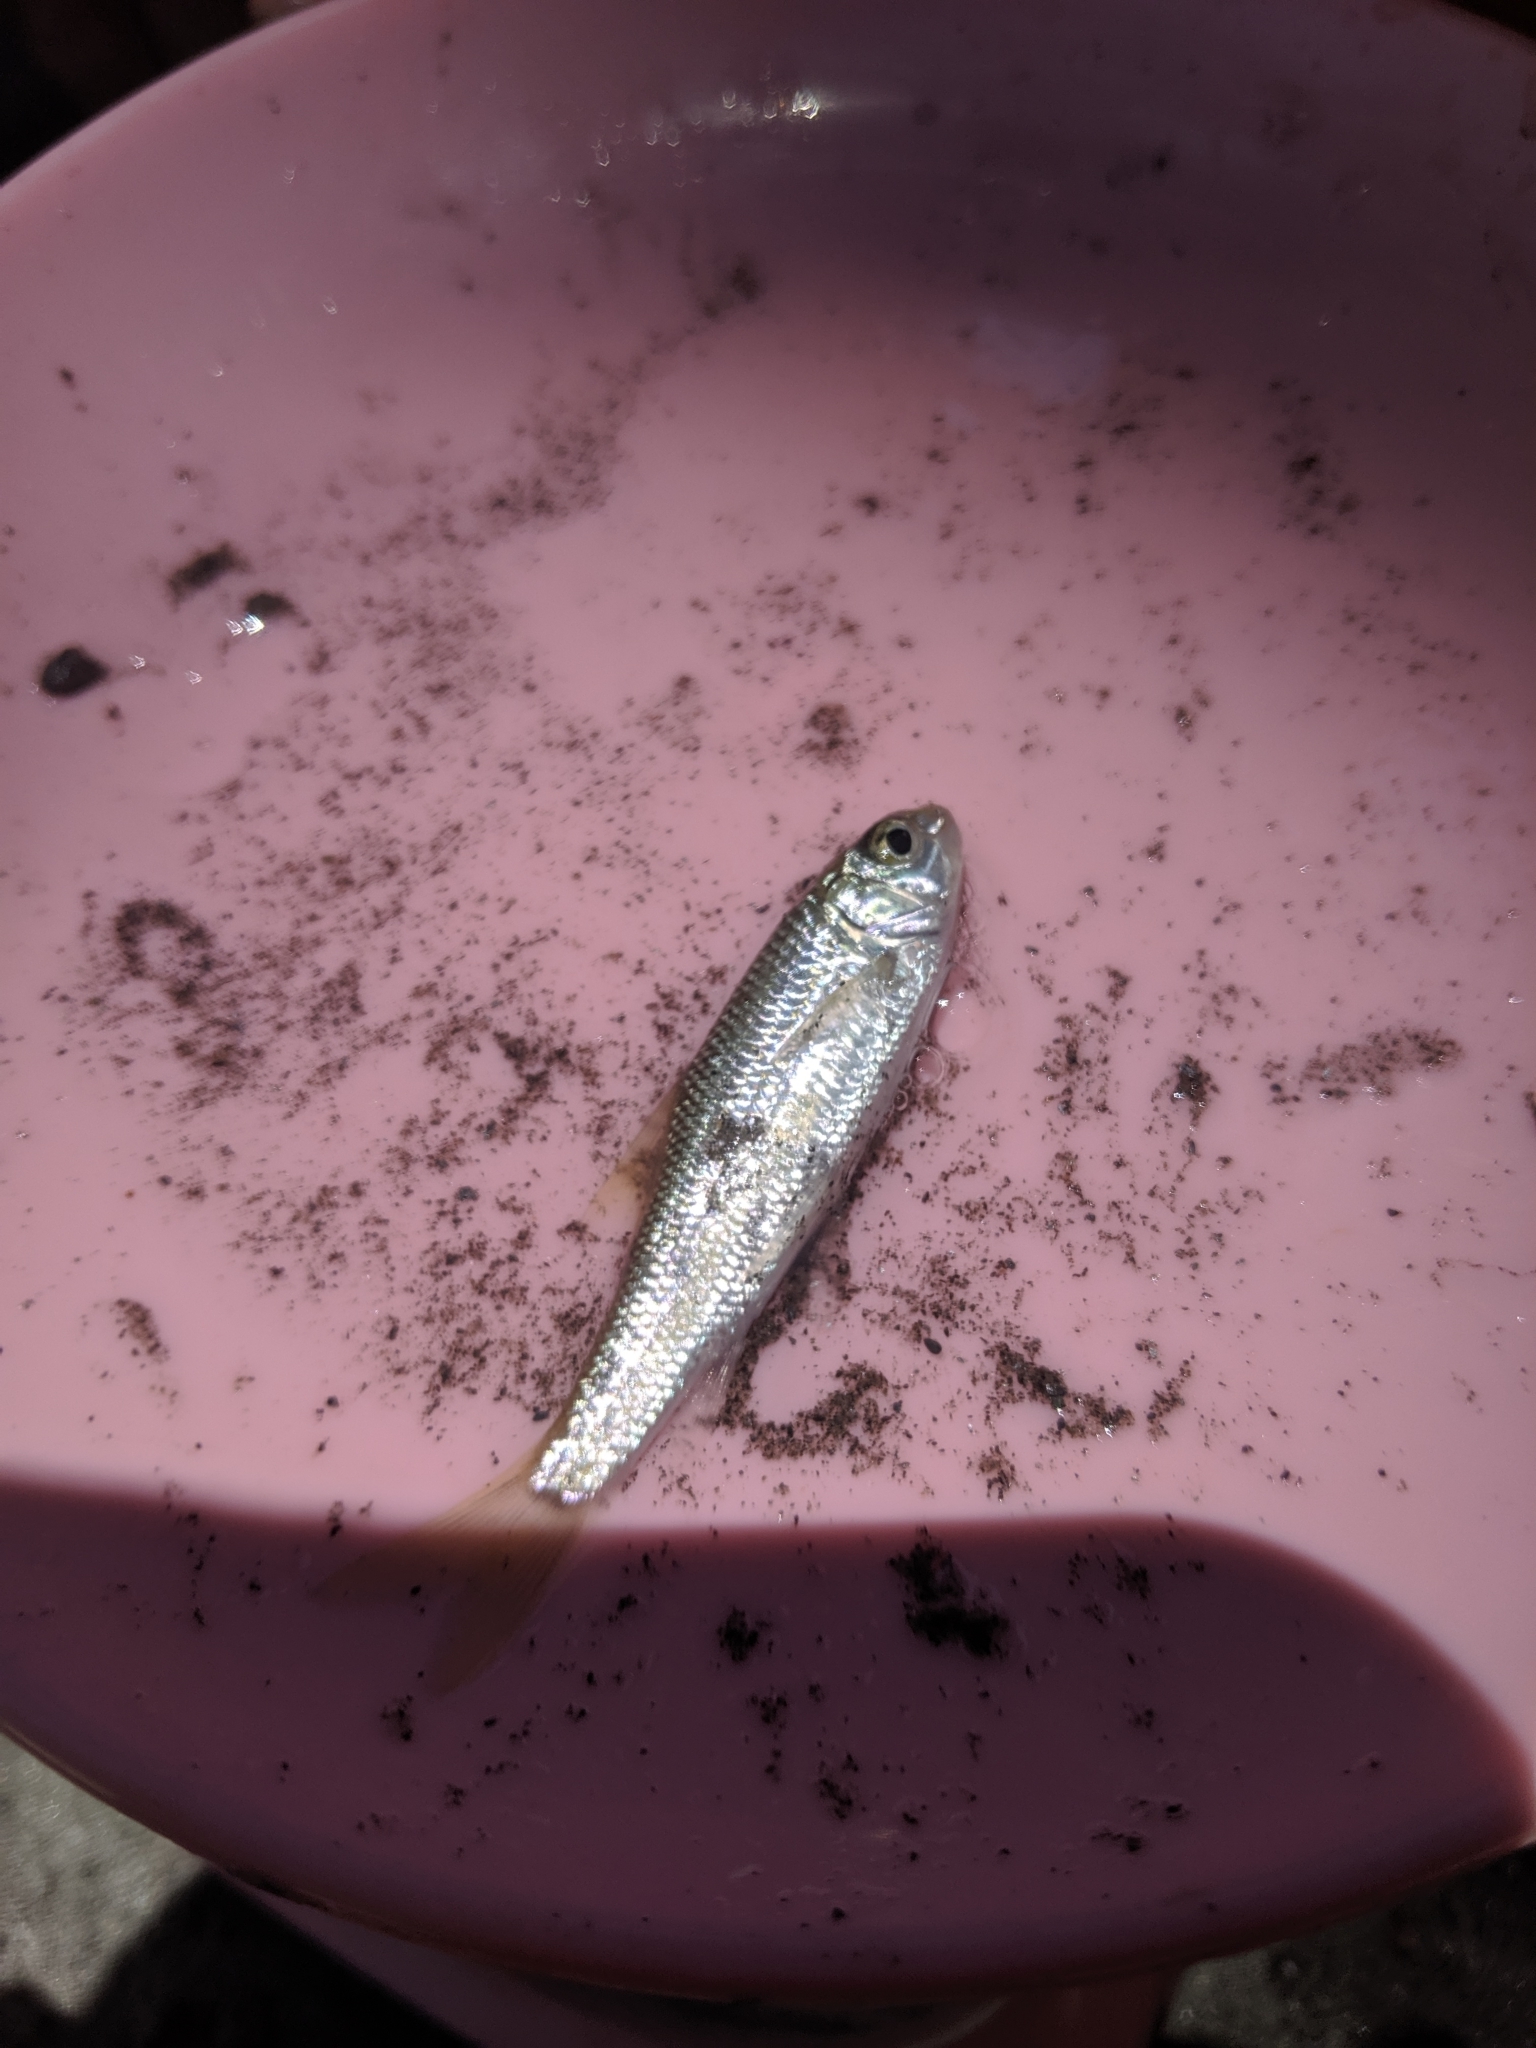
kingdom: Animalia
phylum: Chordata
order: Cypriniformes
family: Cyprinidae
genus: Onychostoma
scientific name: Onychostoma barbatulum
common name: Taiwan shoveljaw carp
